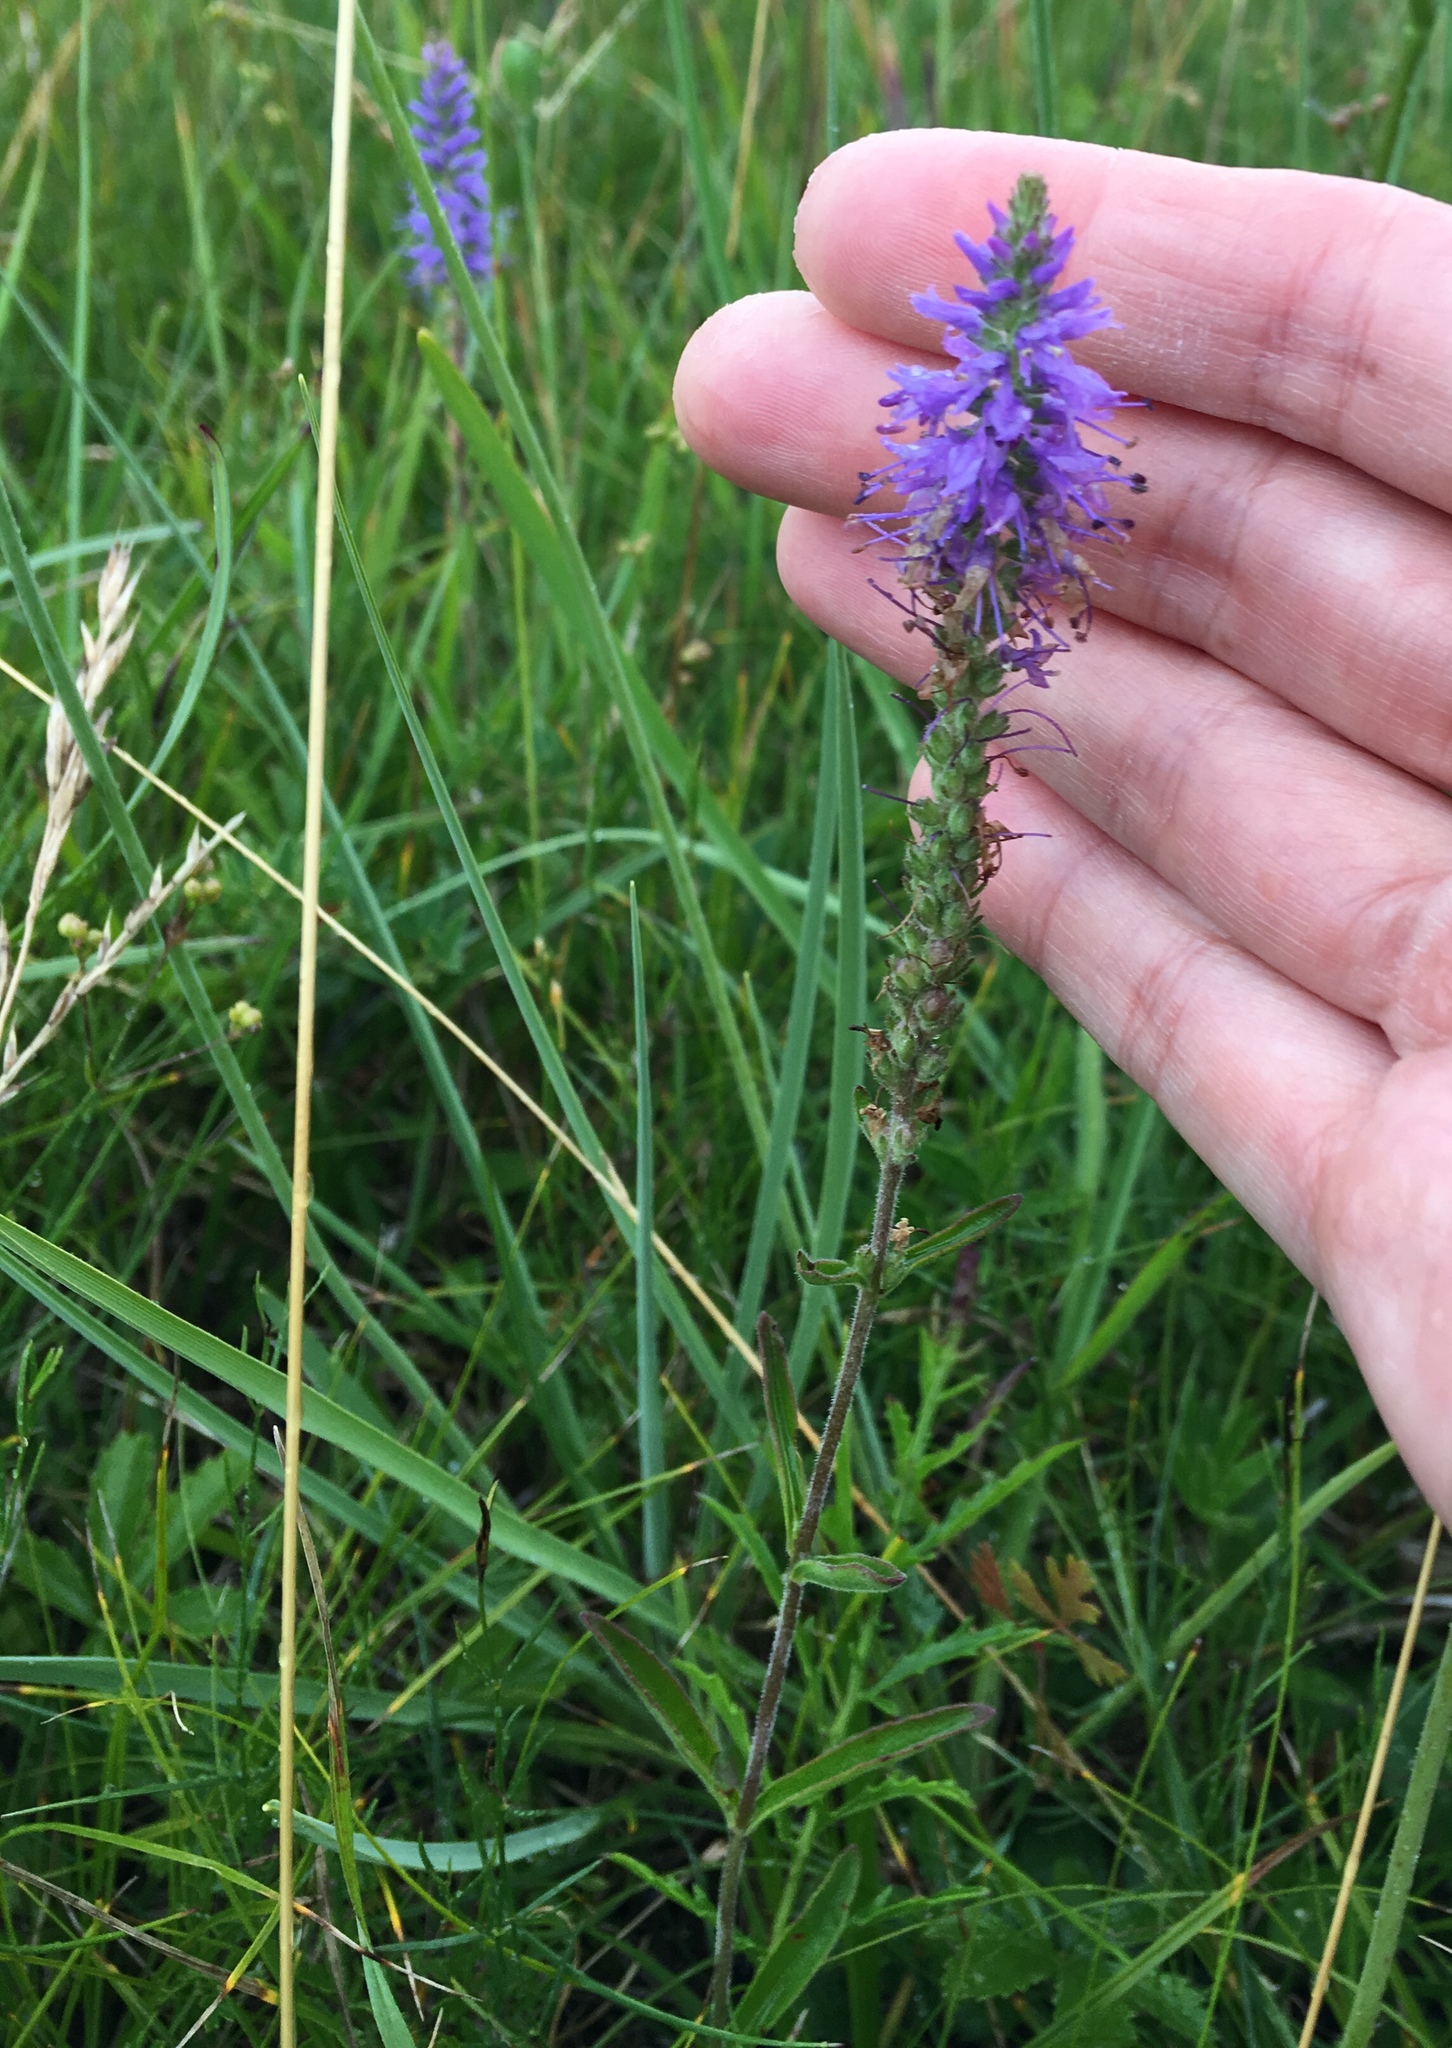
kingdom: Plantae
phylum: Tracheophyta
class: Magnoliopsida
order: Lamiales
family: Plantaginaceae
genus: Veronica
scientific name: Veronica spicata
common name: Spiked speedwell
